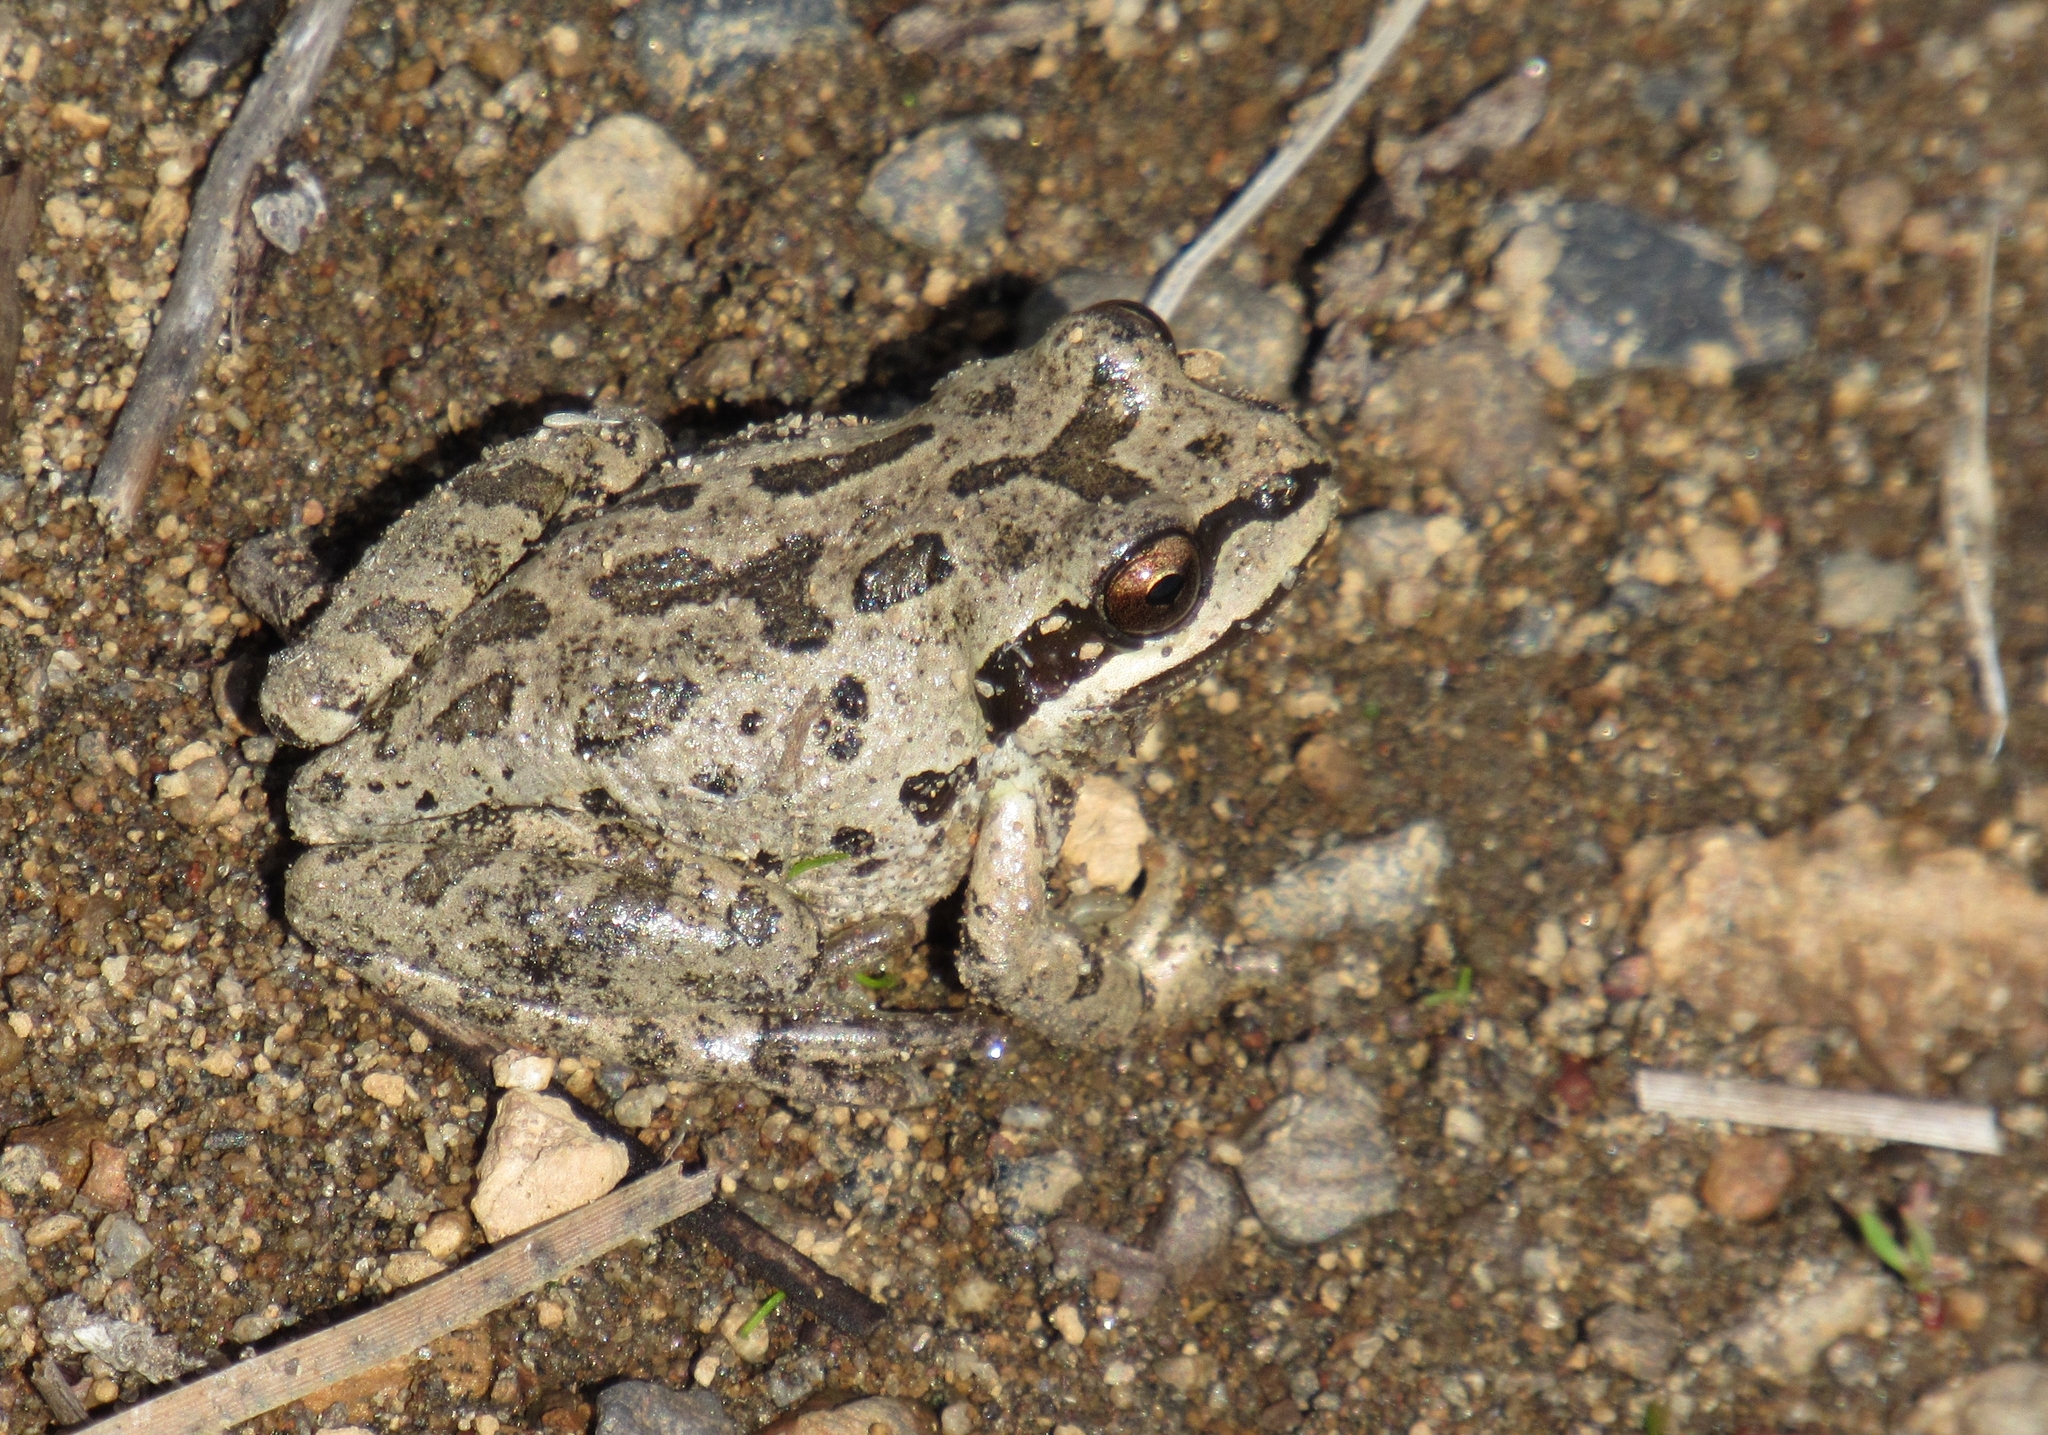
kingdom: Animalia
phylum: Chordata
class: Amphibia
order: Anura
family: Hylidae
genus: Pseudacris
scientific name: Pseudacris regilla
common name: Pacific chorus frog
